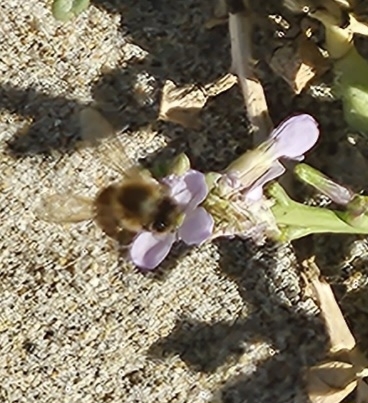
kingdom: Animalia
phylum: Arthropoda
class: Insecta
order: Hymenoptera
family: Apidae
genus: Apis
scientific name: Apis mellifera
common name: Honey bee
